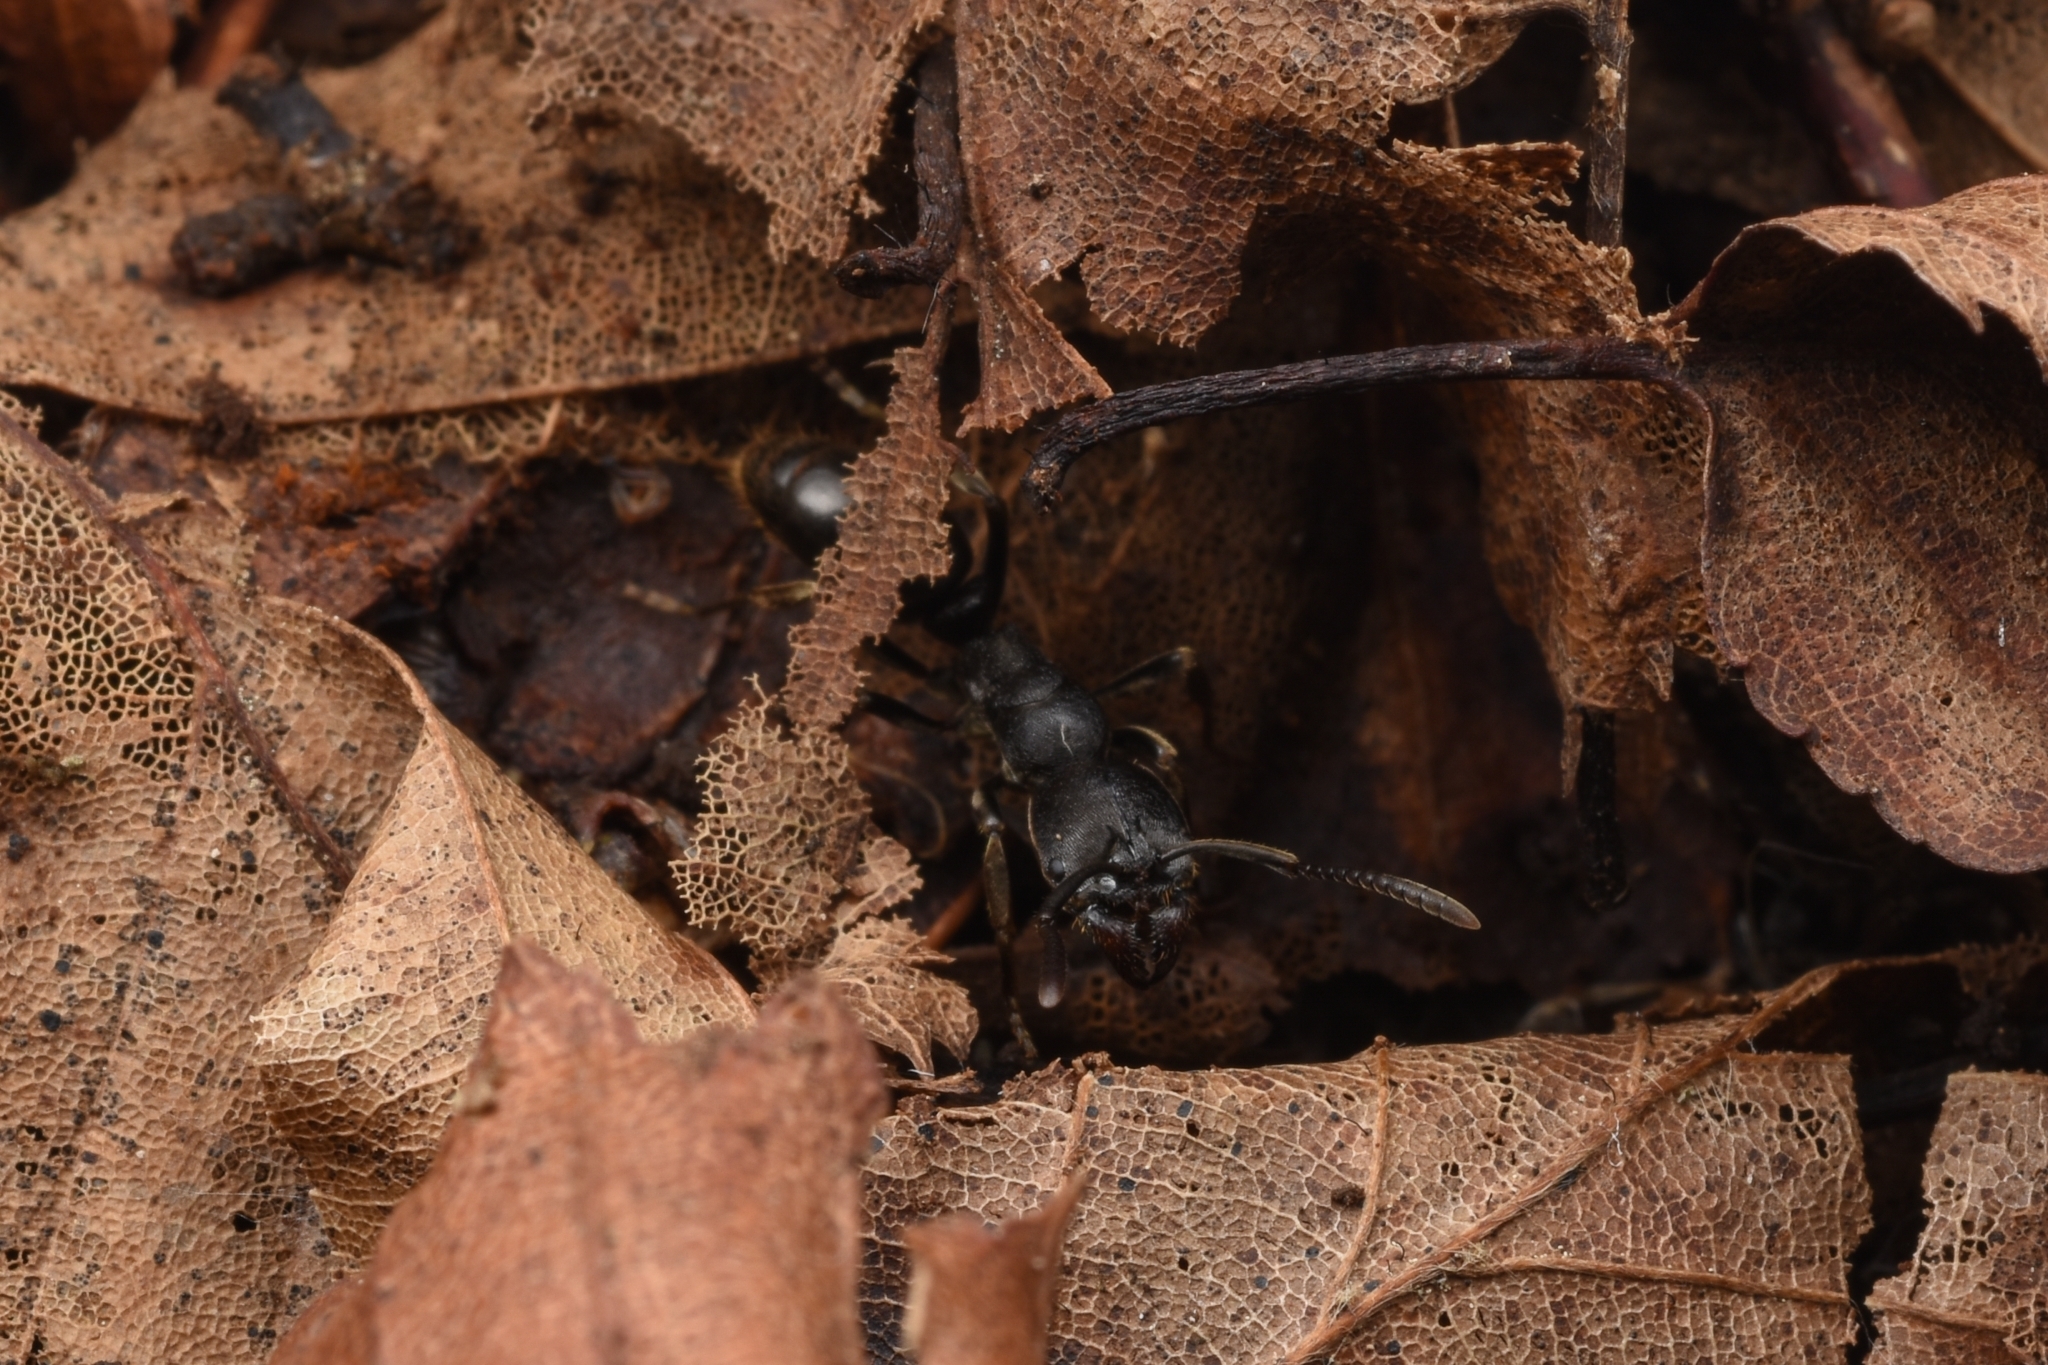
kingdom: Animalia
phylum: Arthropoda
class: Insecta
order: Hymenoptera
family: Formicidae
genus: Ectomomyrmex
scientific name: Ectomomyrmex javanus
